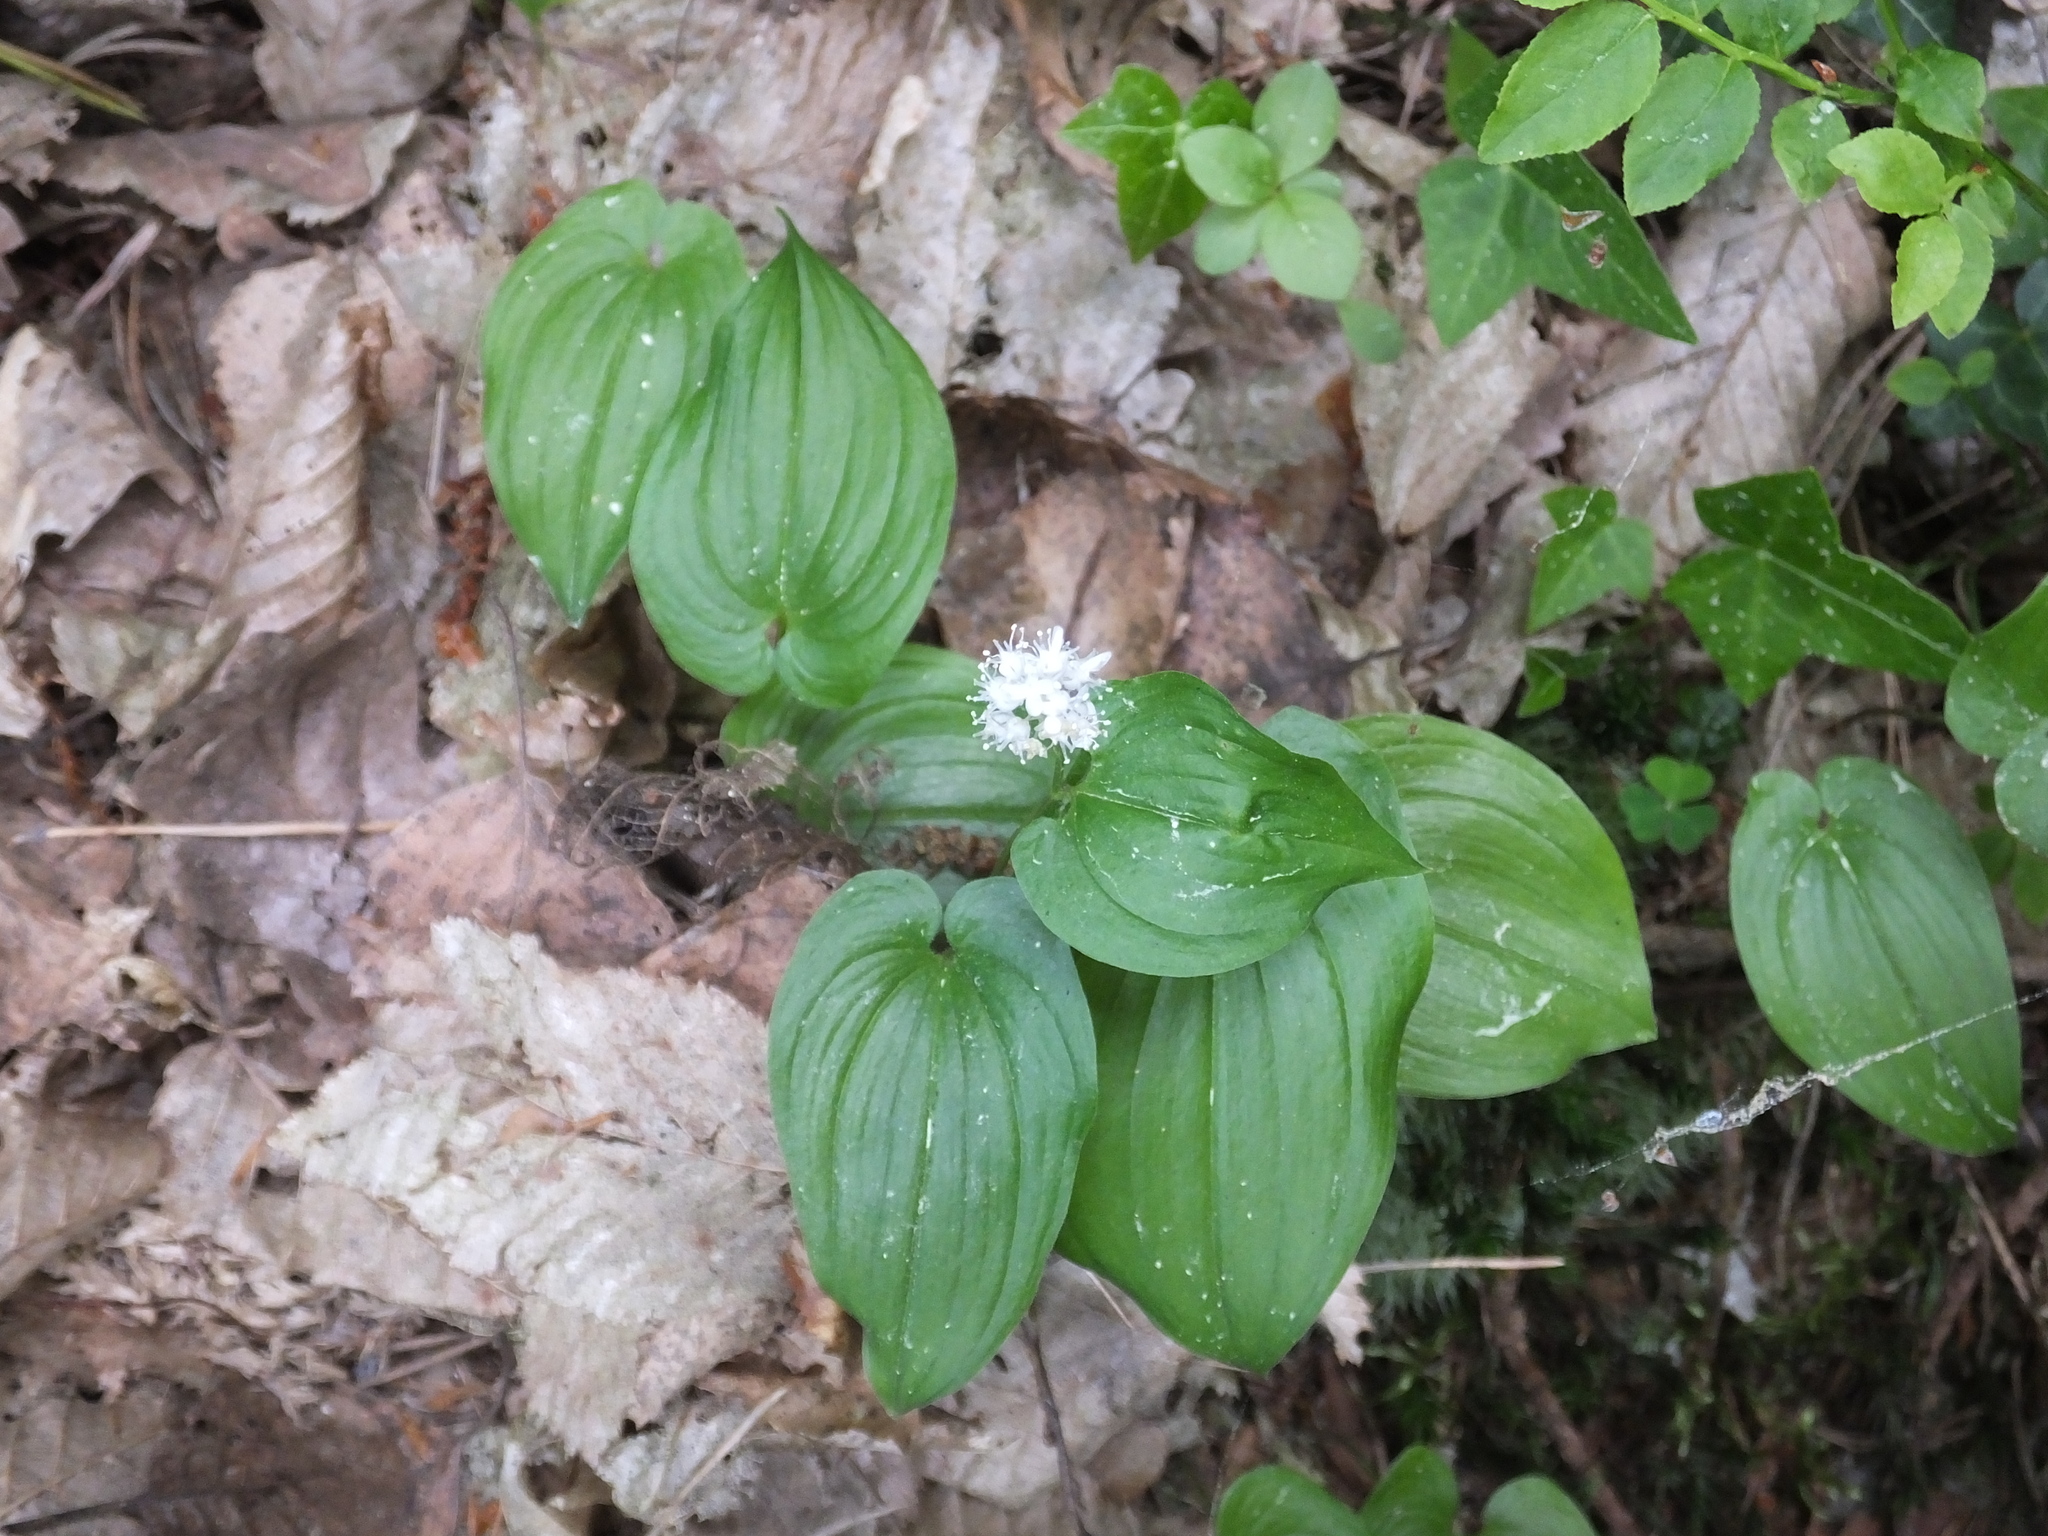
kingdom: Plantae
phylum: Tracheophyta
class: Liliopsida
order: Asparagales
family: Asparagaceae
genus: Maianthemum
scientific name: Maianthemum bifolium
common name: May lily
